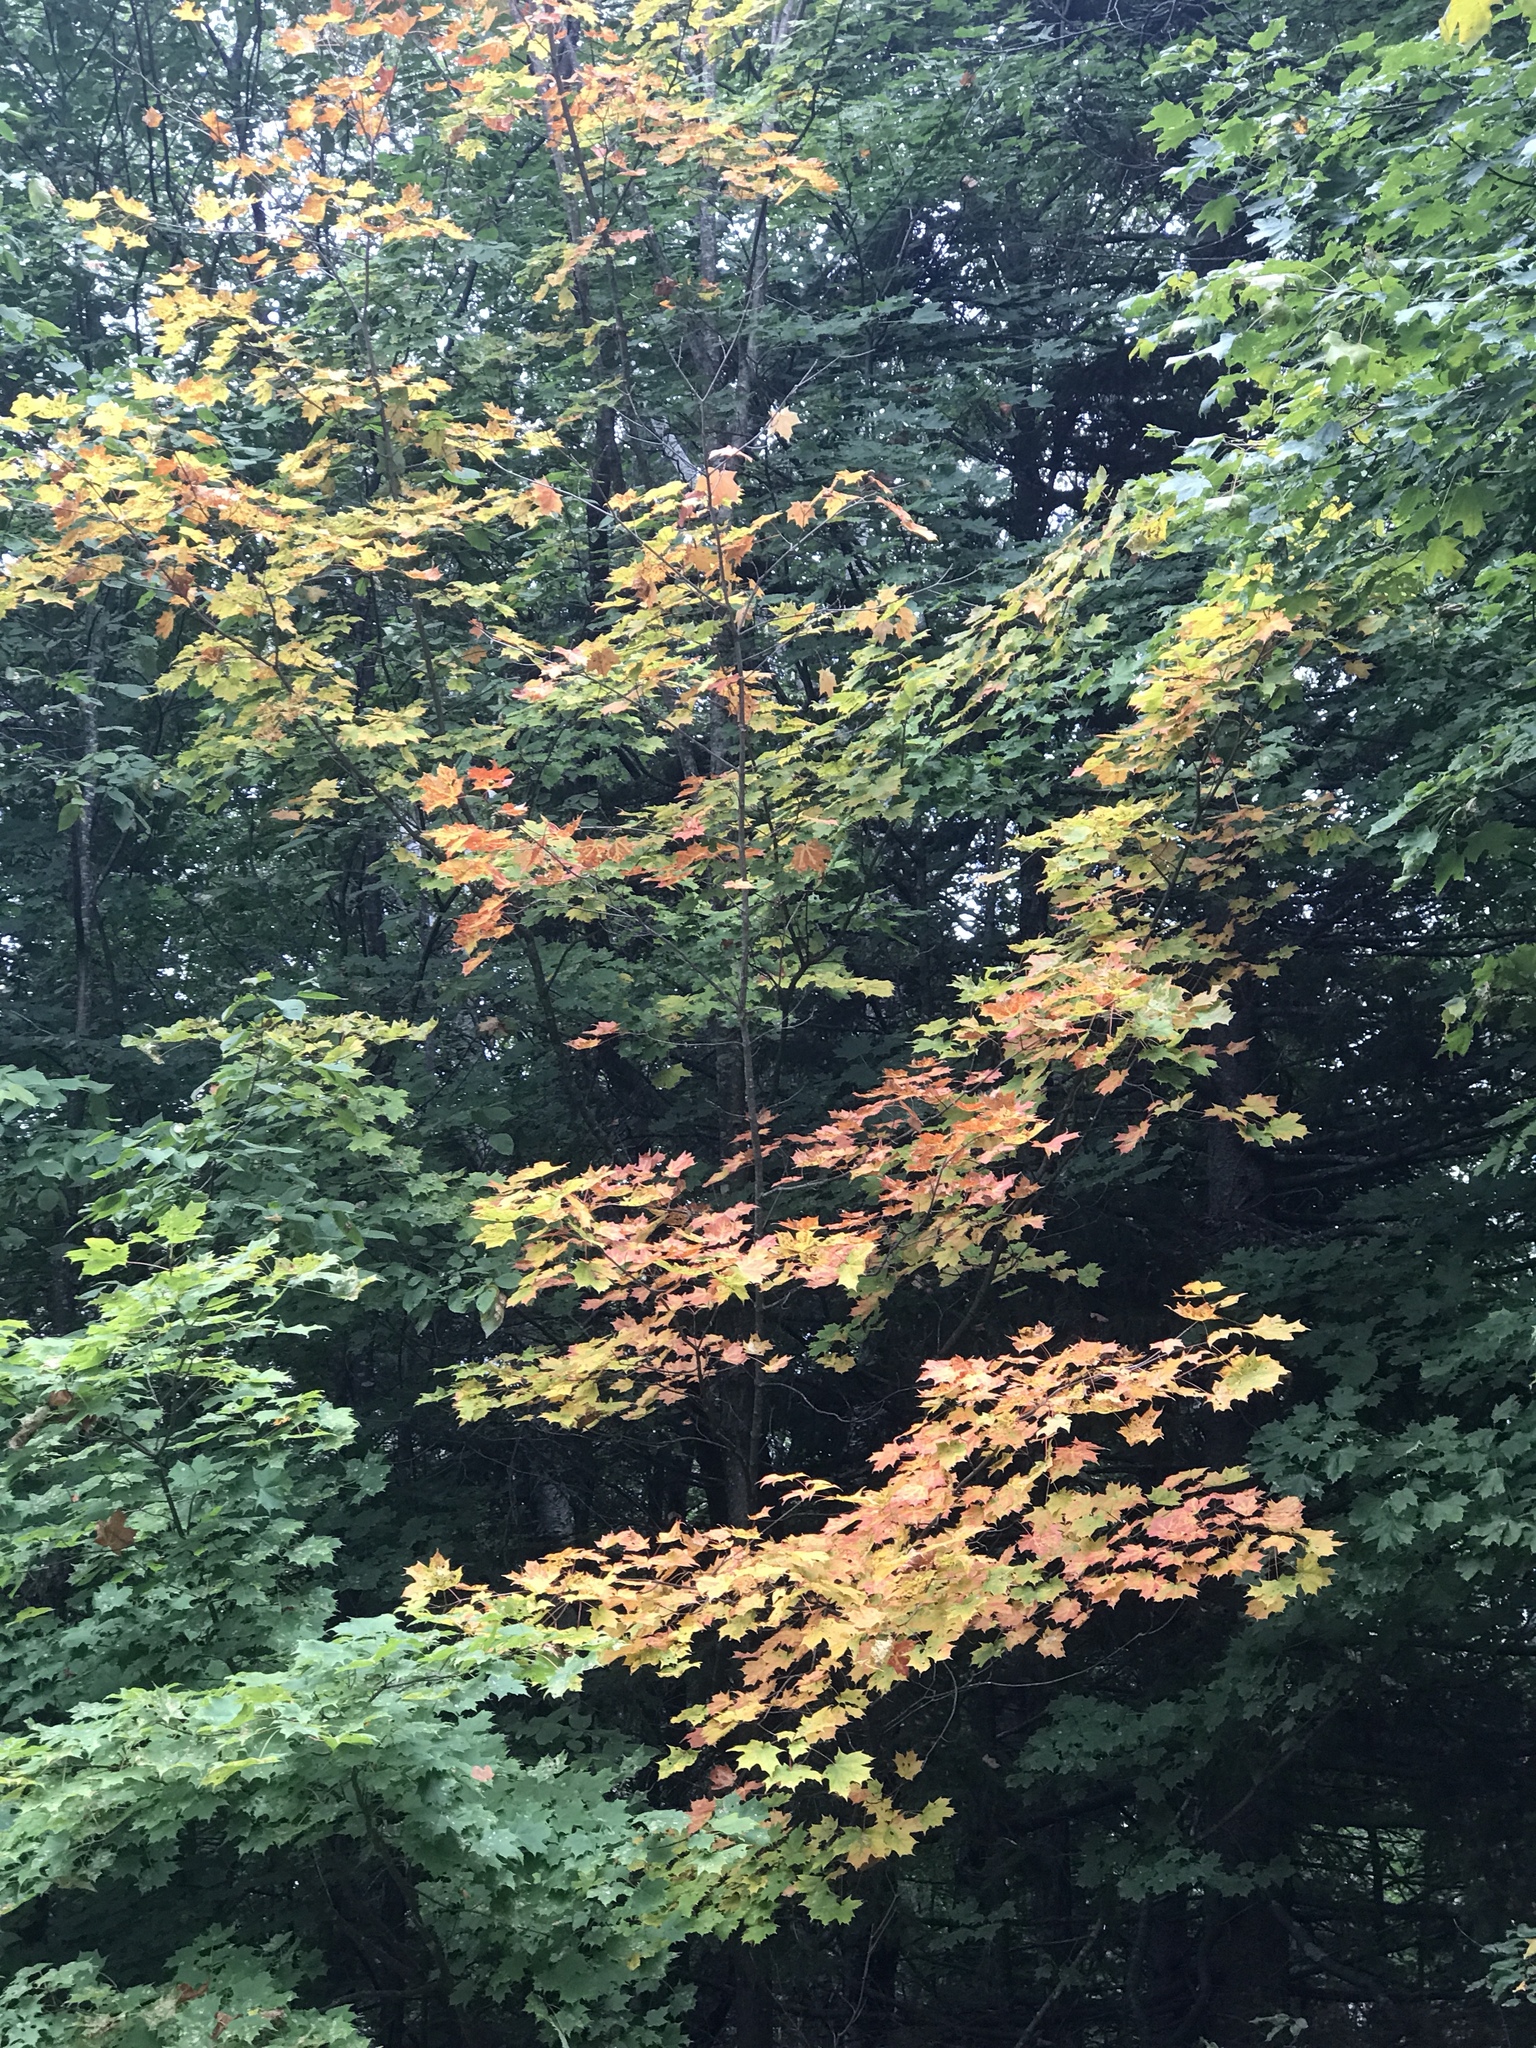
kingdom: Plantae
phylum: Tracheophyta
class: Magnoliopsida
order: Sapindales
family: Sapindaceae
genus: Acer
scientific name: Acer saccharum
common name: Sugar maple
